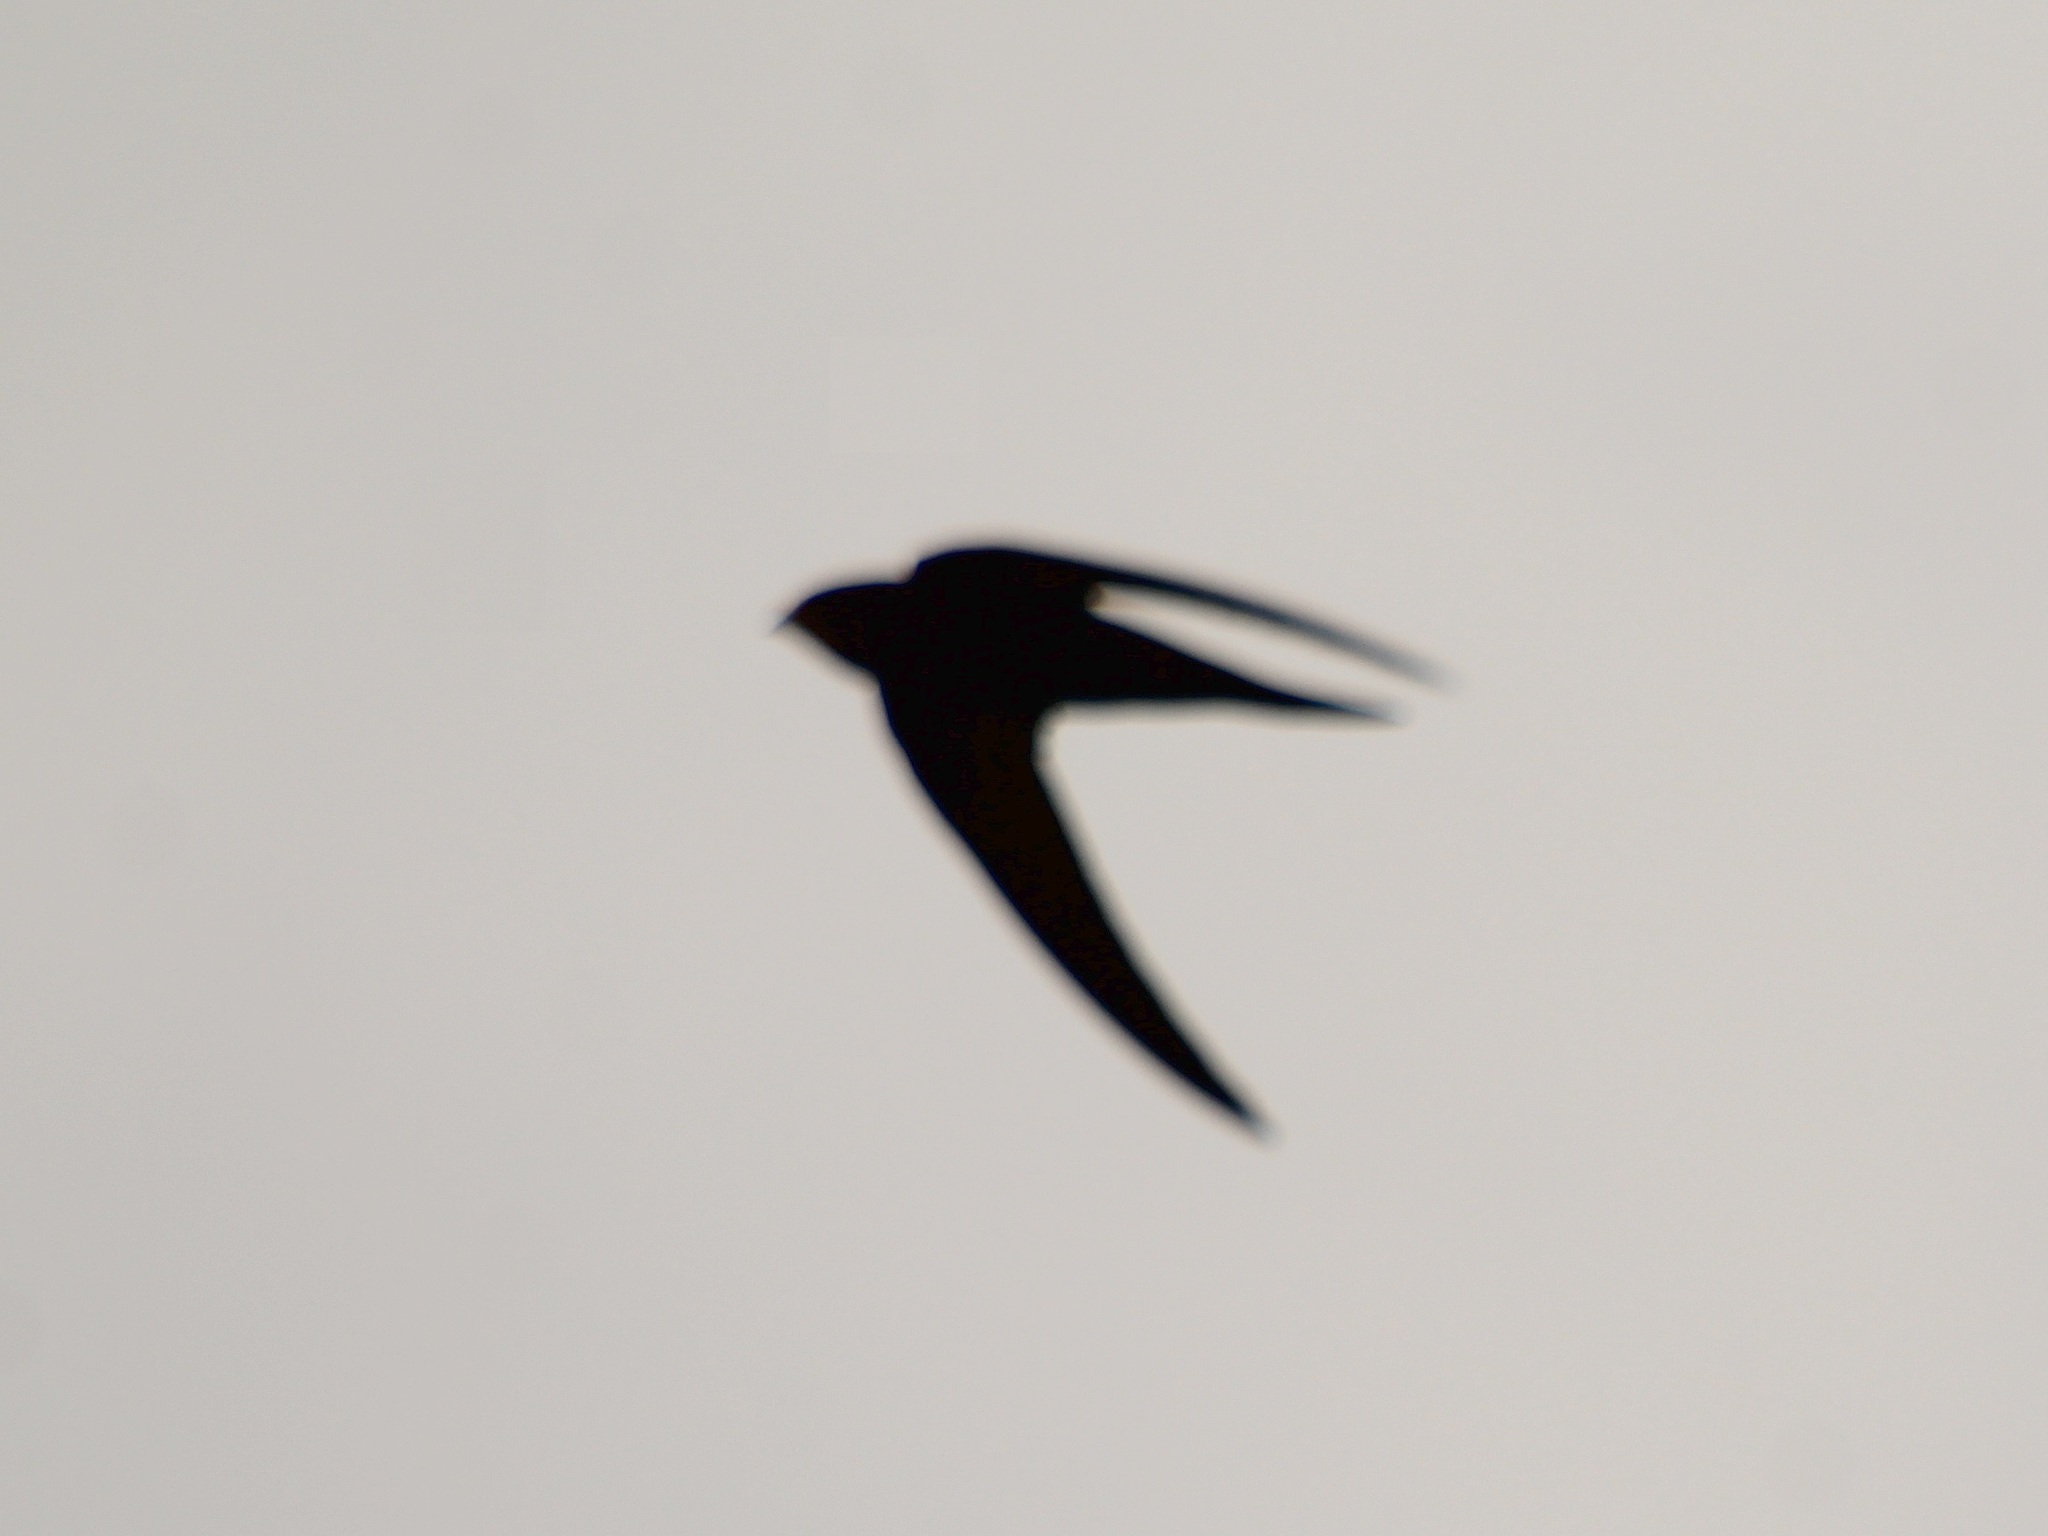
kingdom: Animalia
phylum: Chordata
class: Aves
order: Apodiformes
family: Apodidae
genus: Apus
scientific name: Apus apus
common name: Common swift
